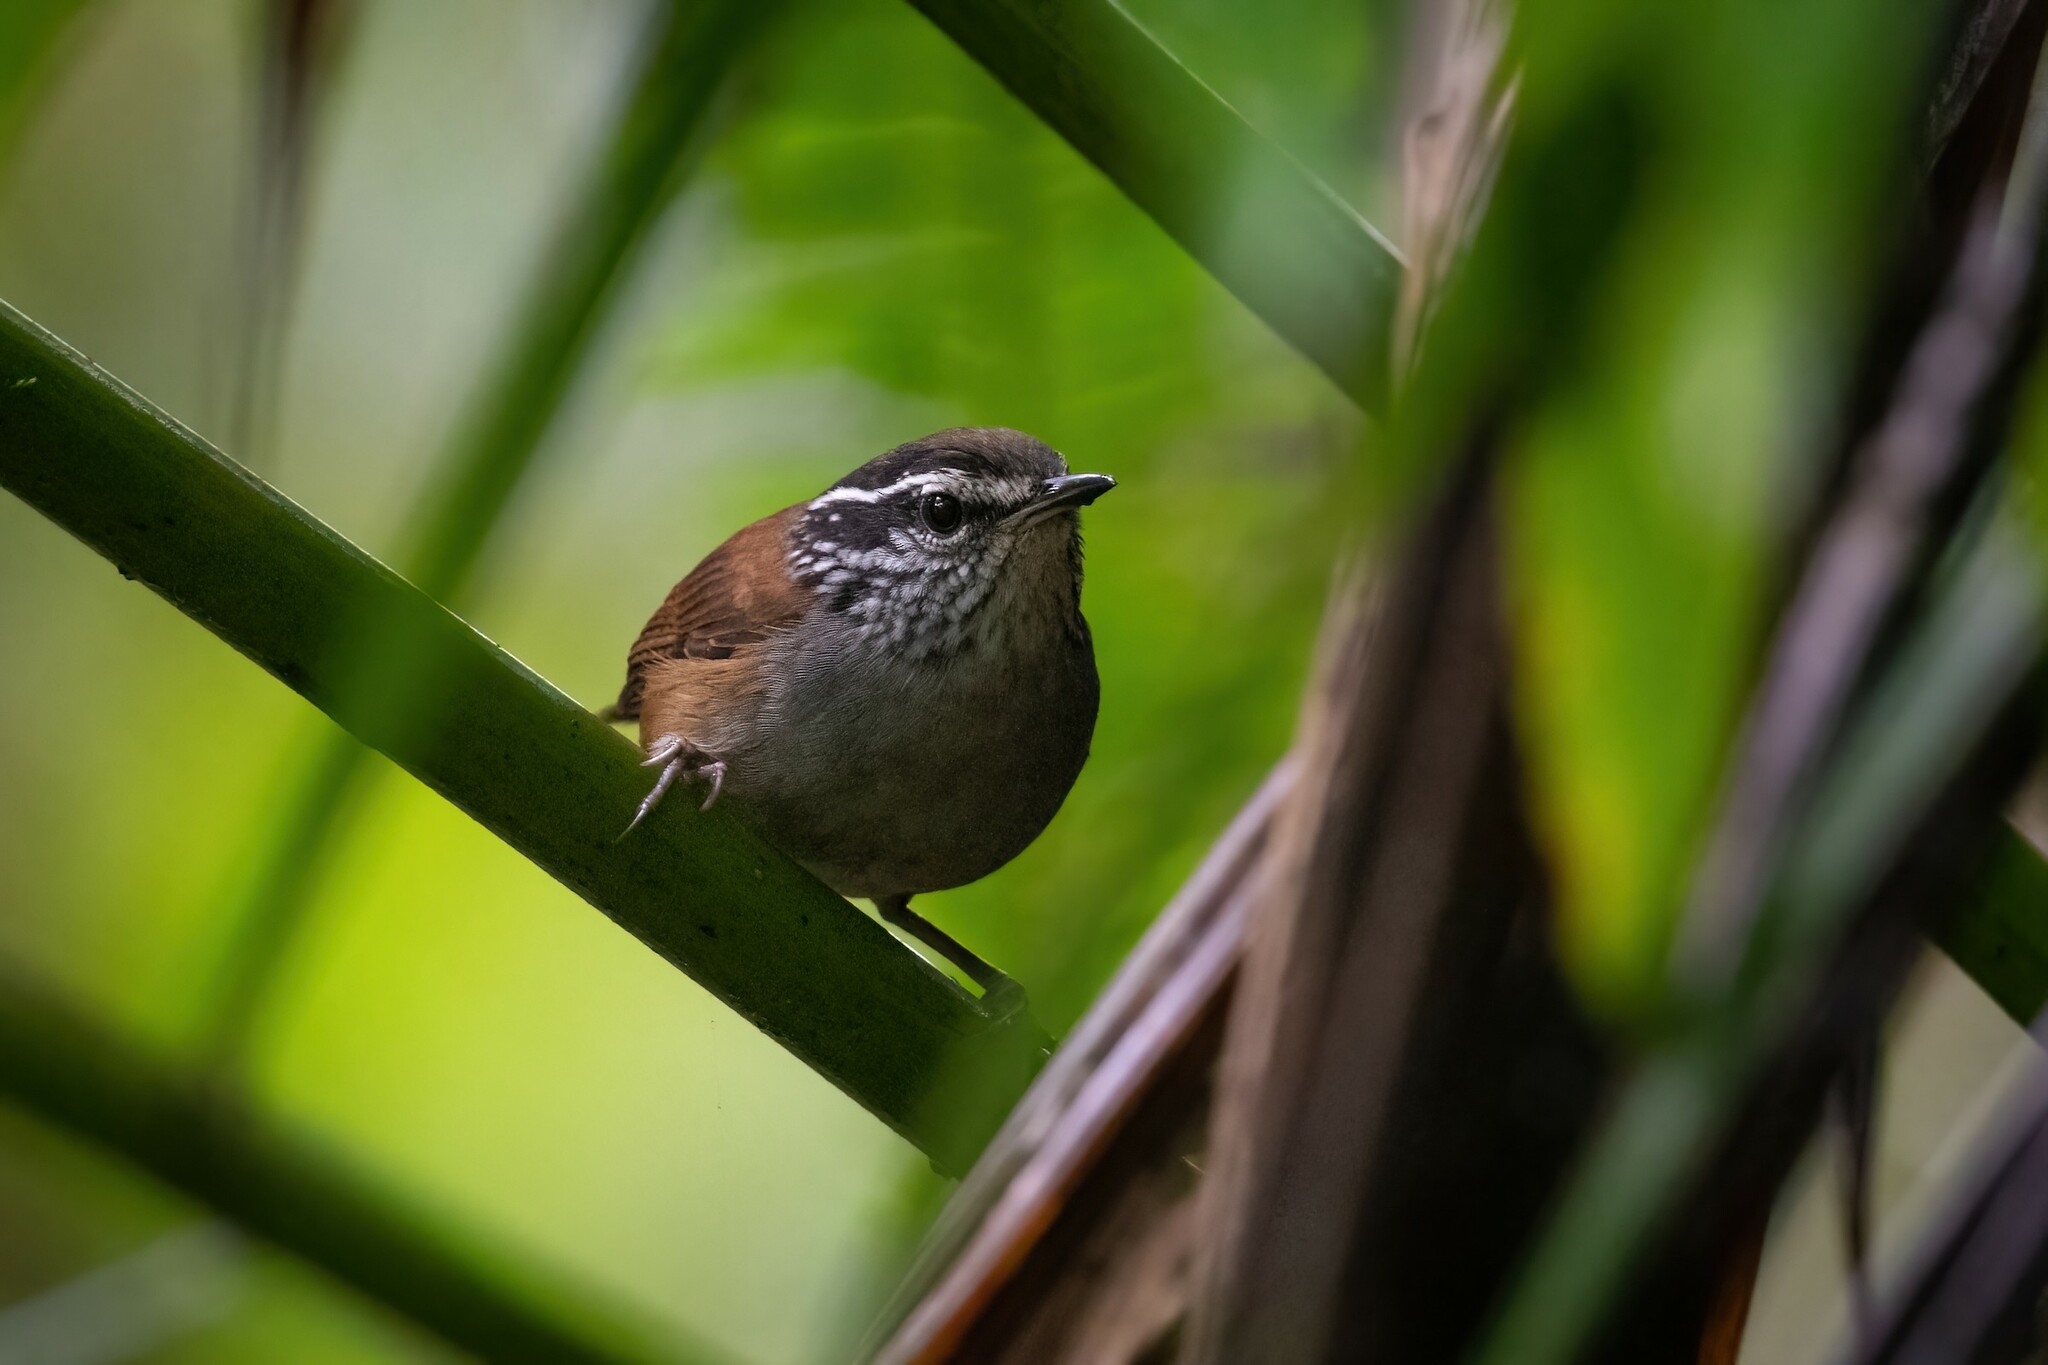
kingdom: Animalia
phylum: Chordata
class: Aves
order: Passeriformes
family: Troglodytidae
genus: Henicorhina
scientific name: Henicorhina leucophrys
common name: Gray-breasted wood-wren
